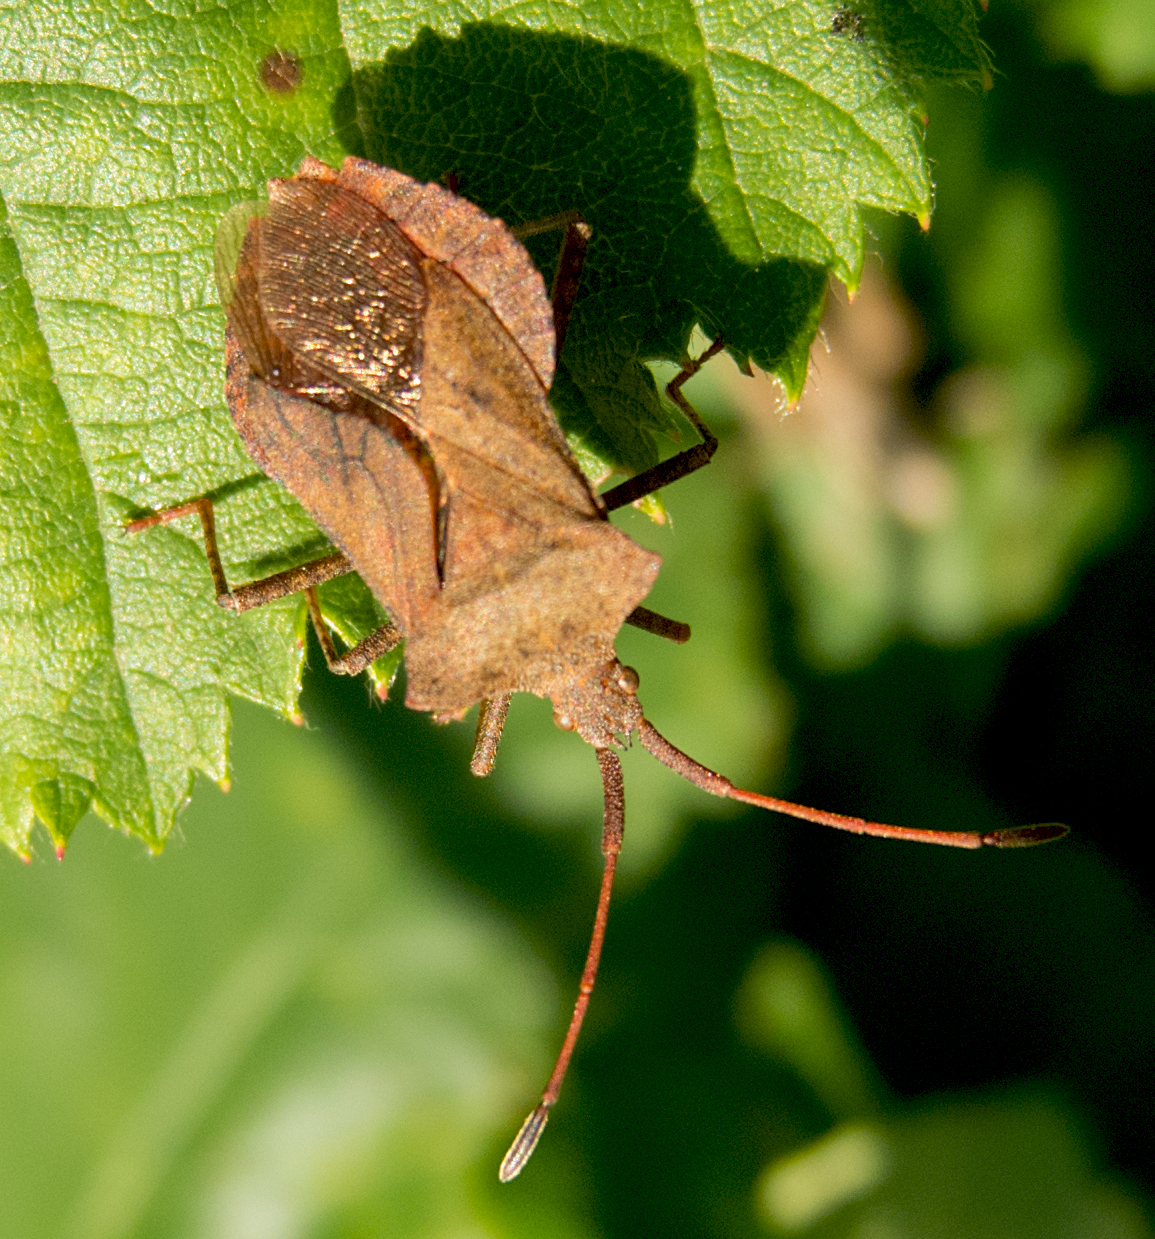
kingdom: Animalia
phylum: Arthropoda
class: Insecta
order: Hemiptera
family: Coreidae
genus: Coreus
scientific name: Coreus marginatus
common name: Dock bug
